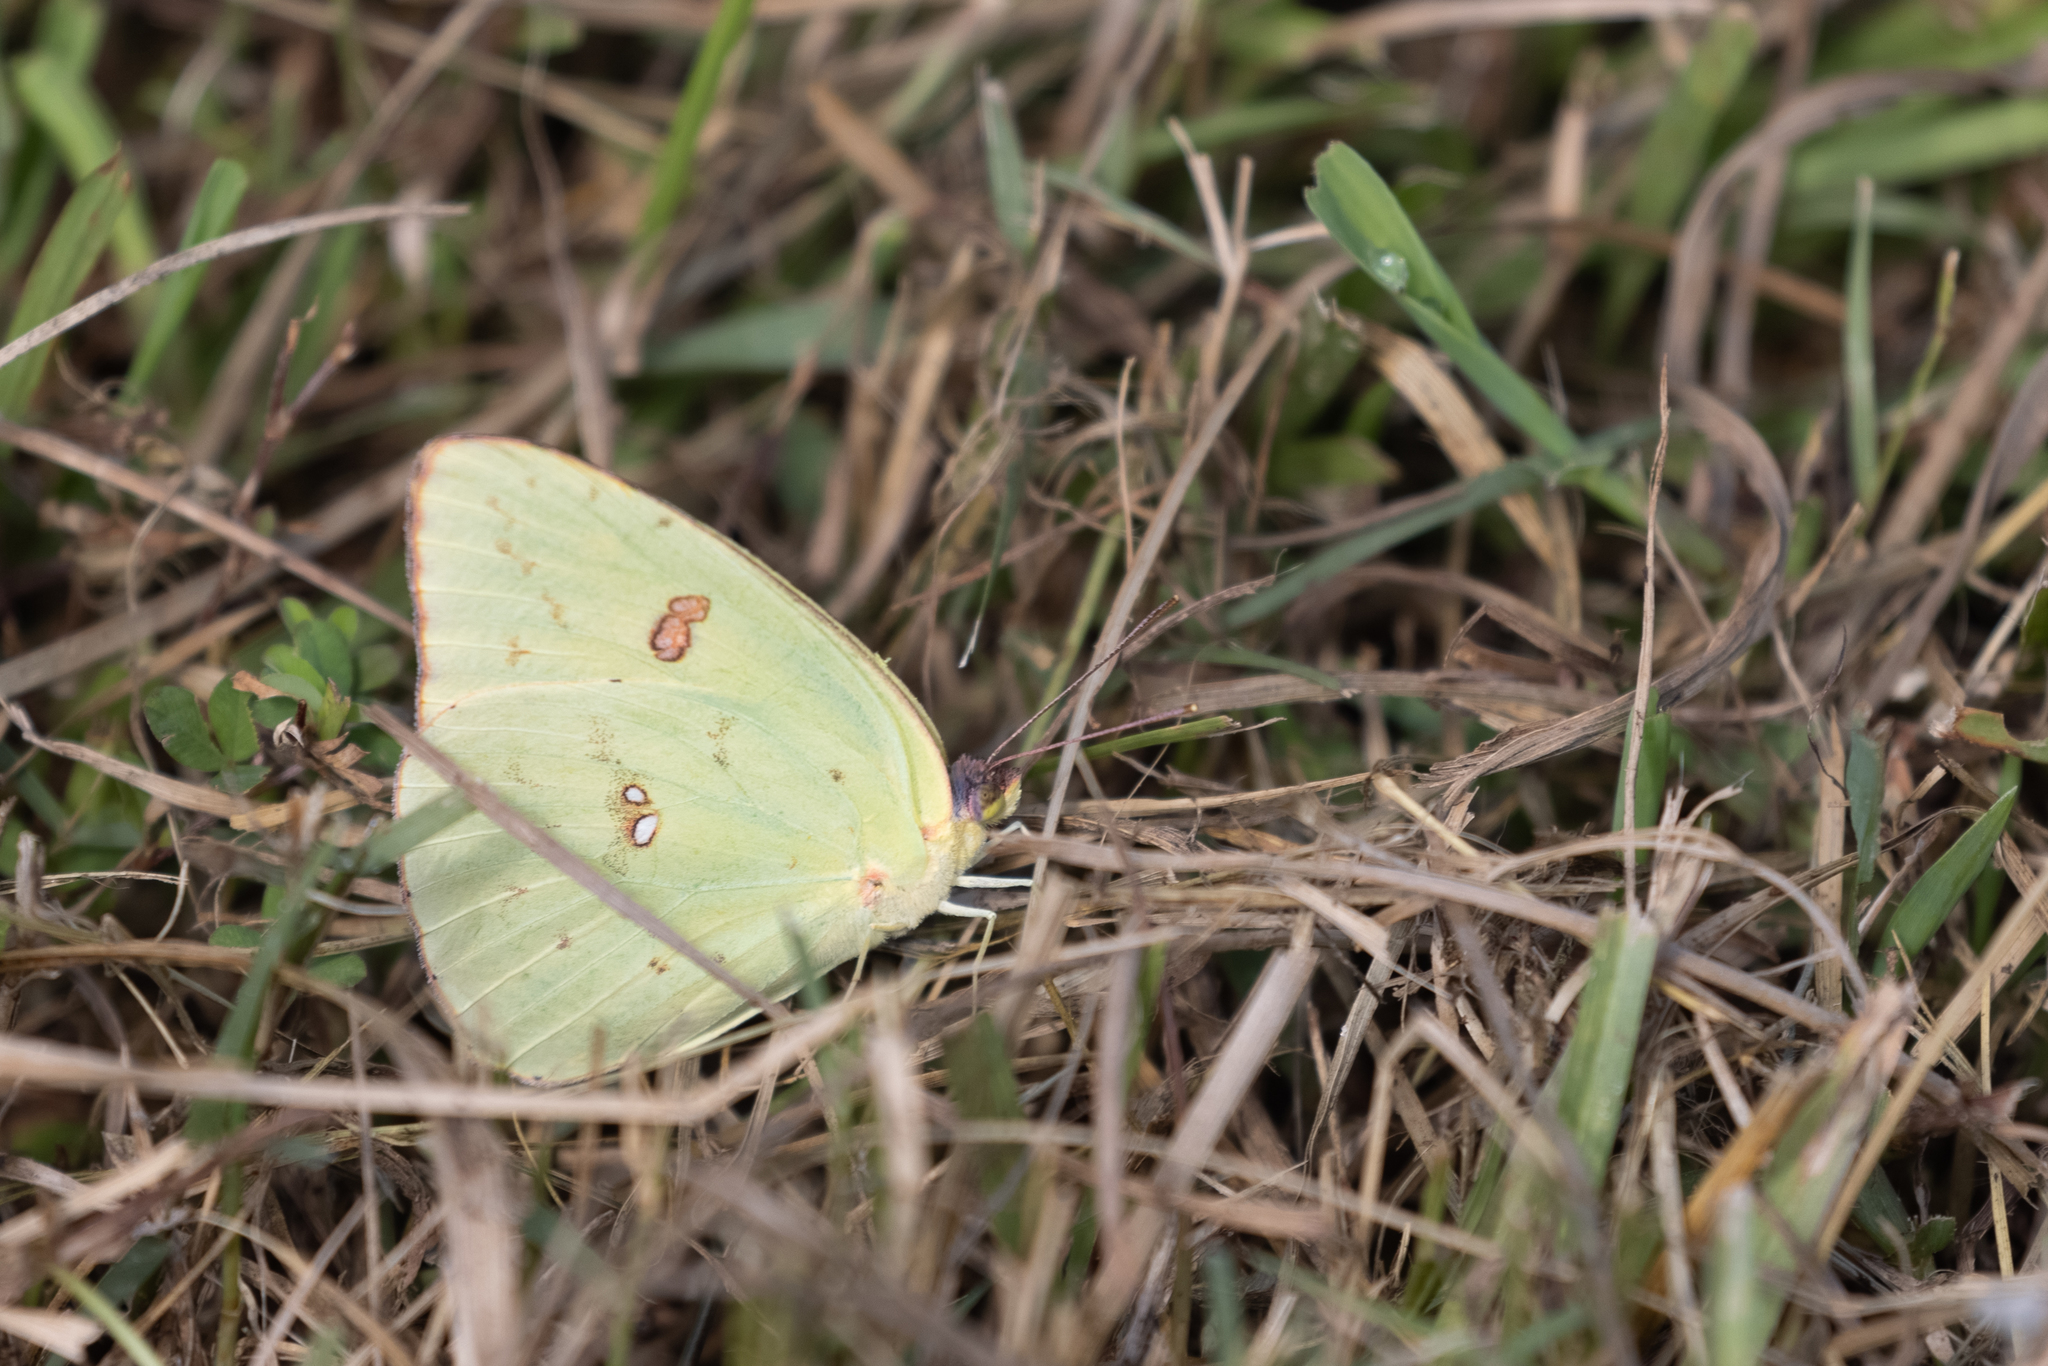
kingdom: Animalia
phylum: Arthropoda
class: Insecta
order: Lepidoptera
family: Pieridae
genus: Phoebis
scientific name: Phoebis sennae
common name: Cloudless sulphur
